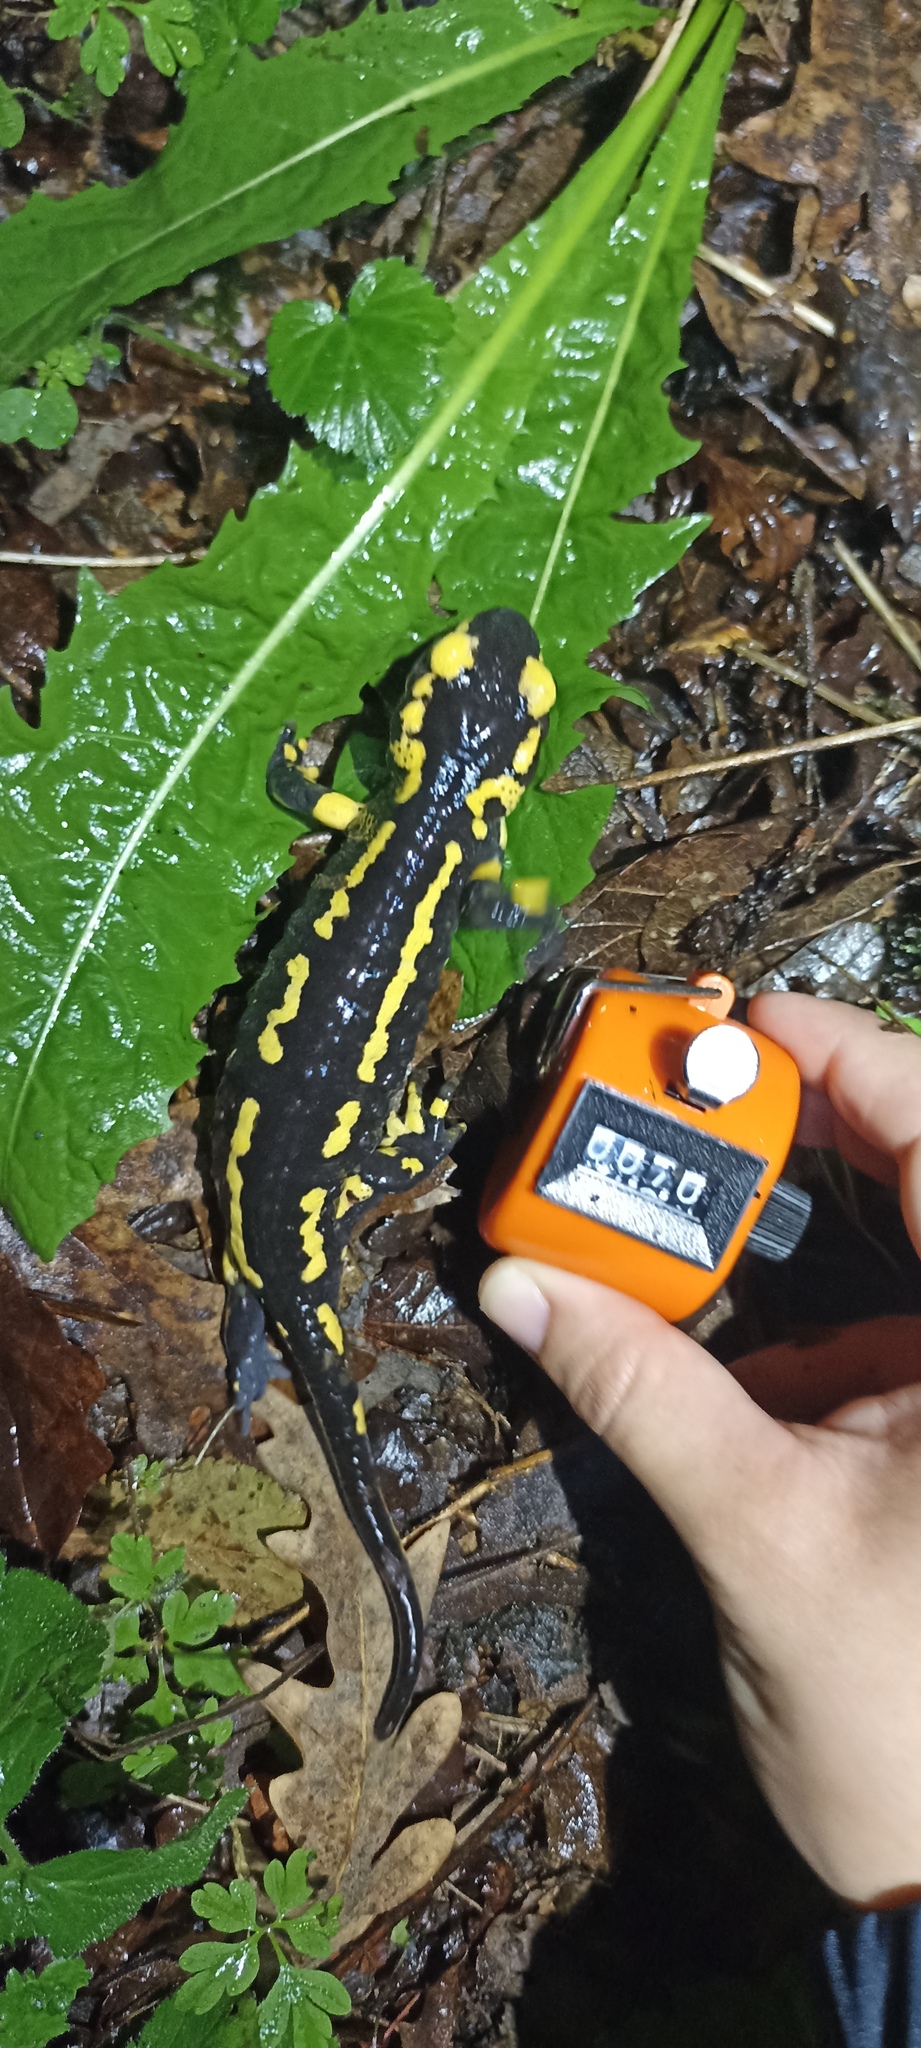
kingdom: Animalia
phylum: Chordata
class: Amphibia
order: Caudata
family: Salamandridae
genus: Salamandra
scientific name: Salamandra salamandra
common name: Fire salamander
